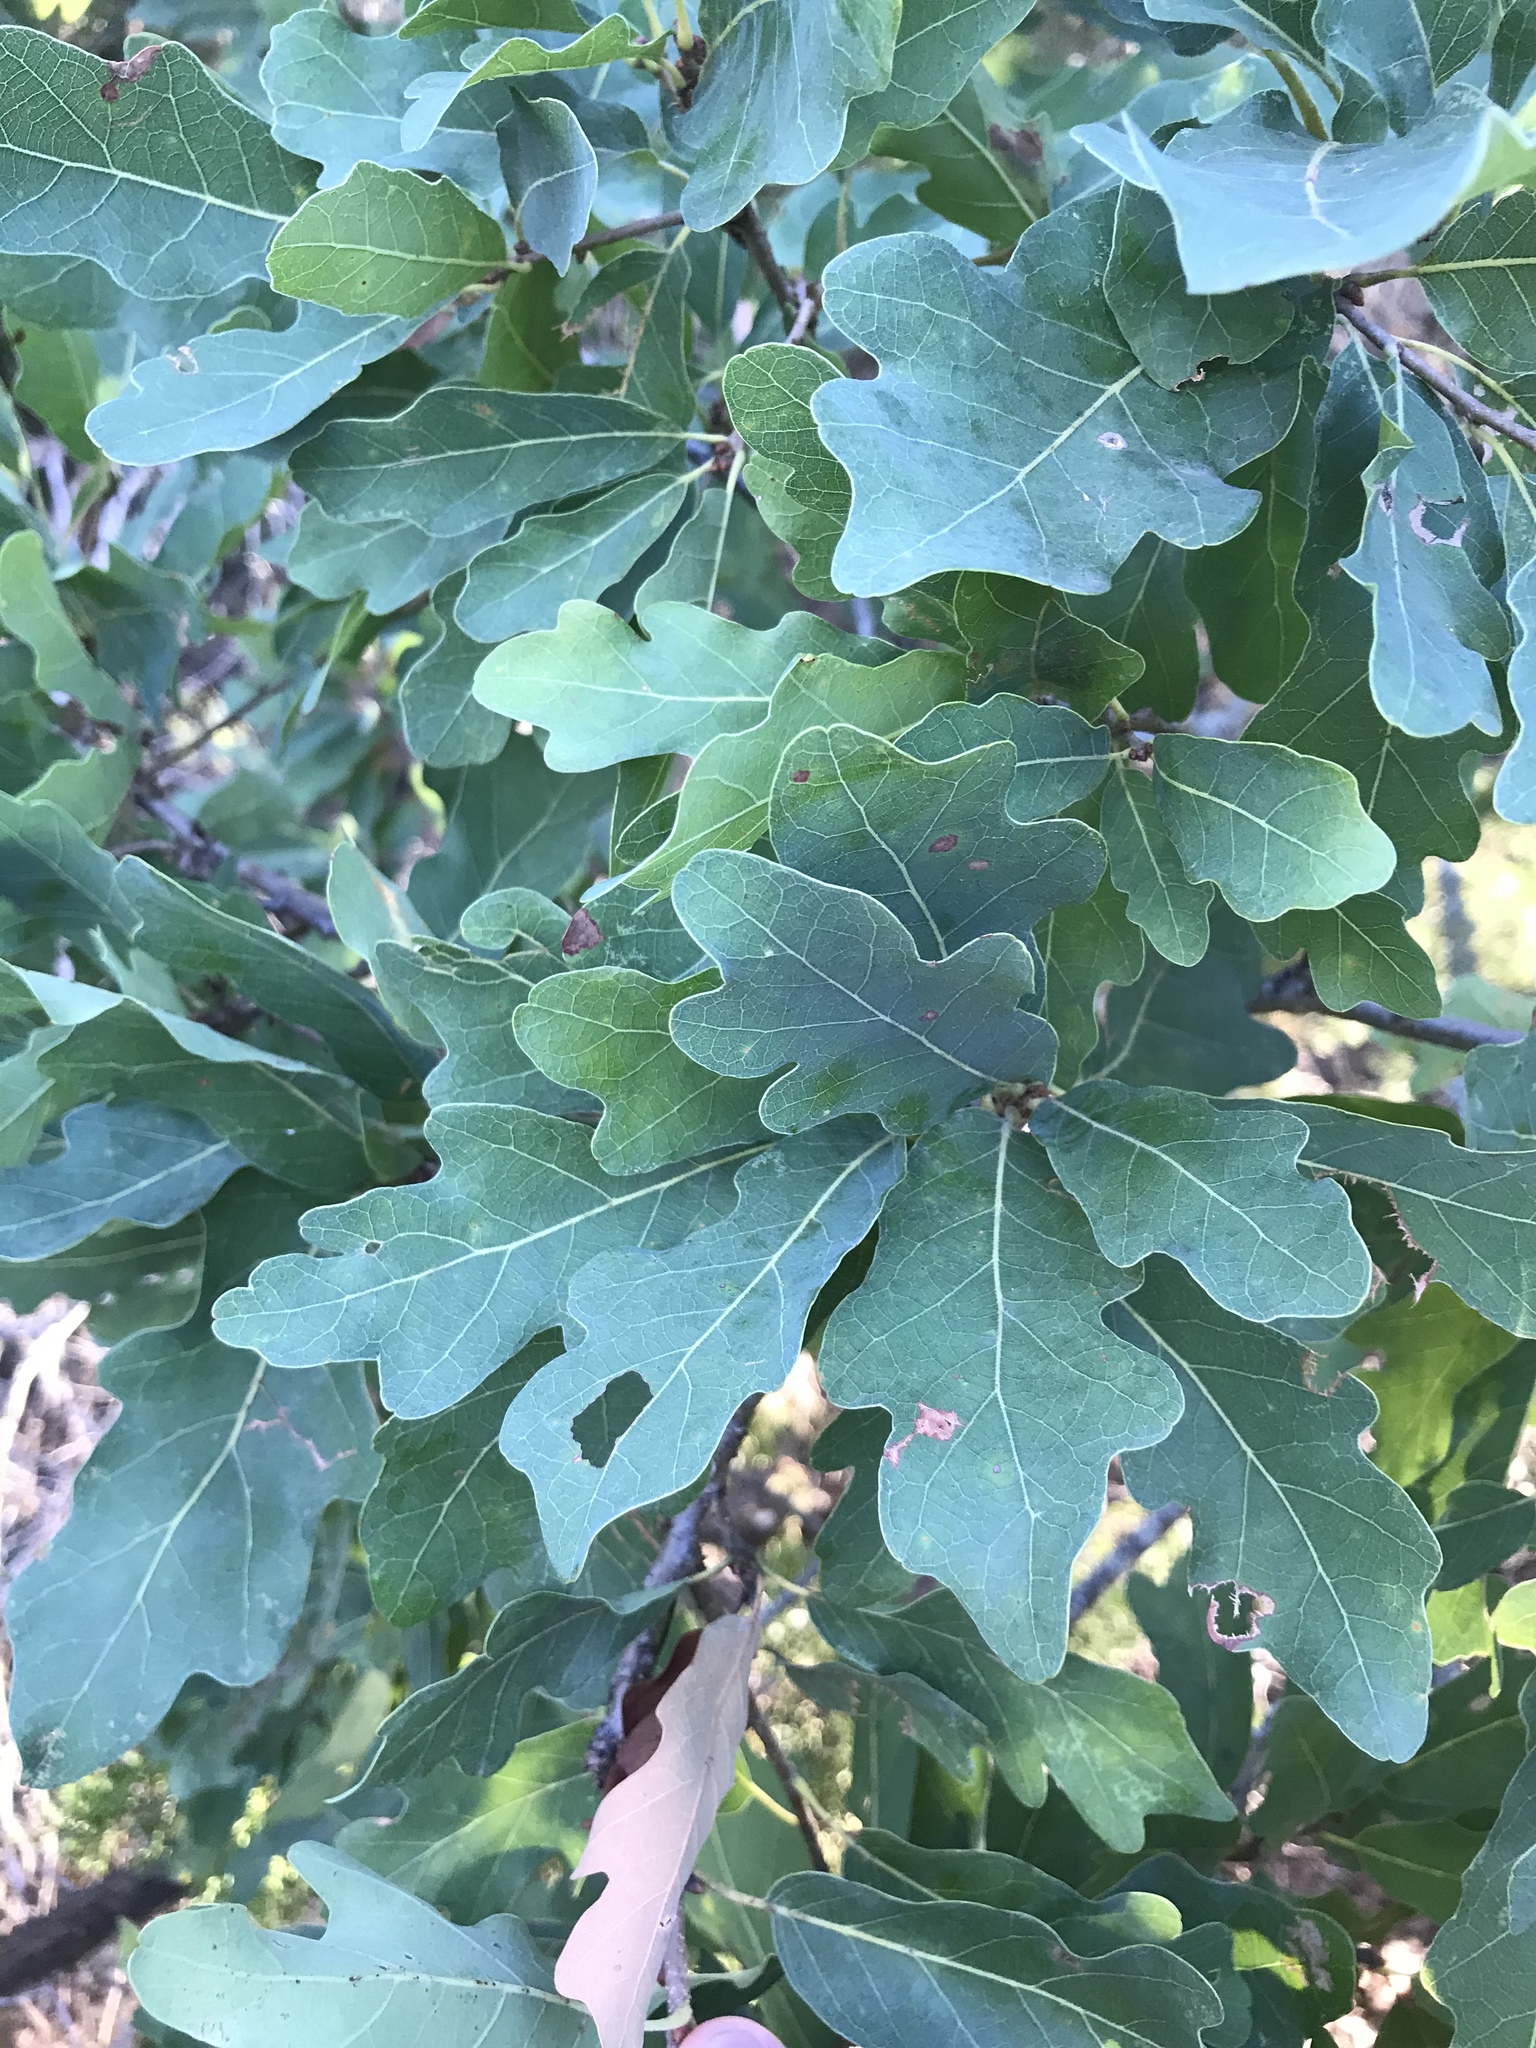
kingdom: Plantae
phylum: Tracheophyta
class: Magnoliopsida
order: Fagales
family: Fagaceae
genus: Quercus
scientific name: Quercus laceyi
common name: Lacey oak
